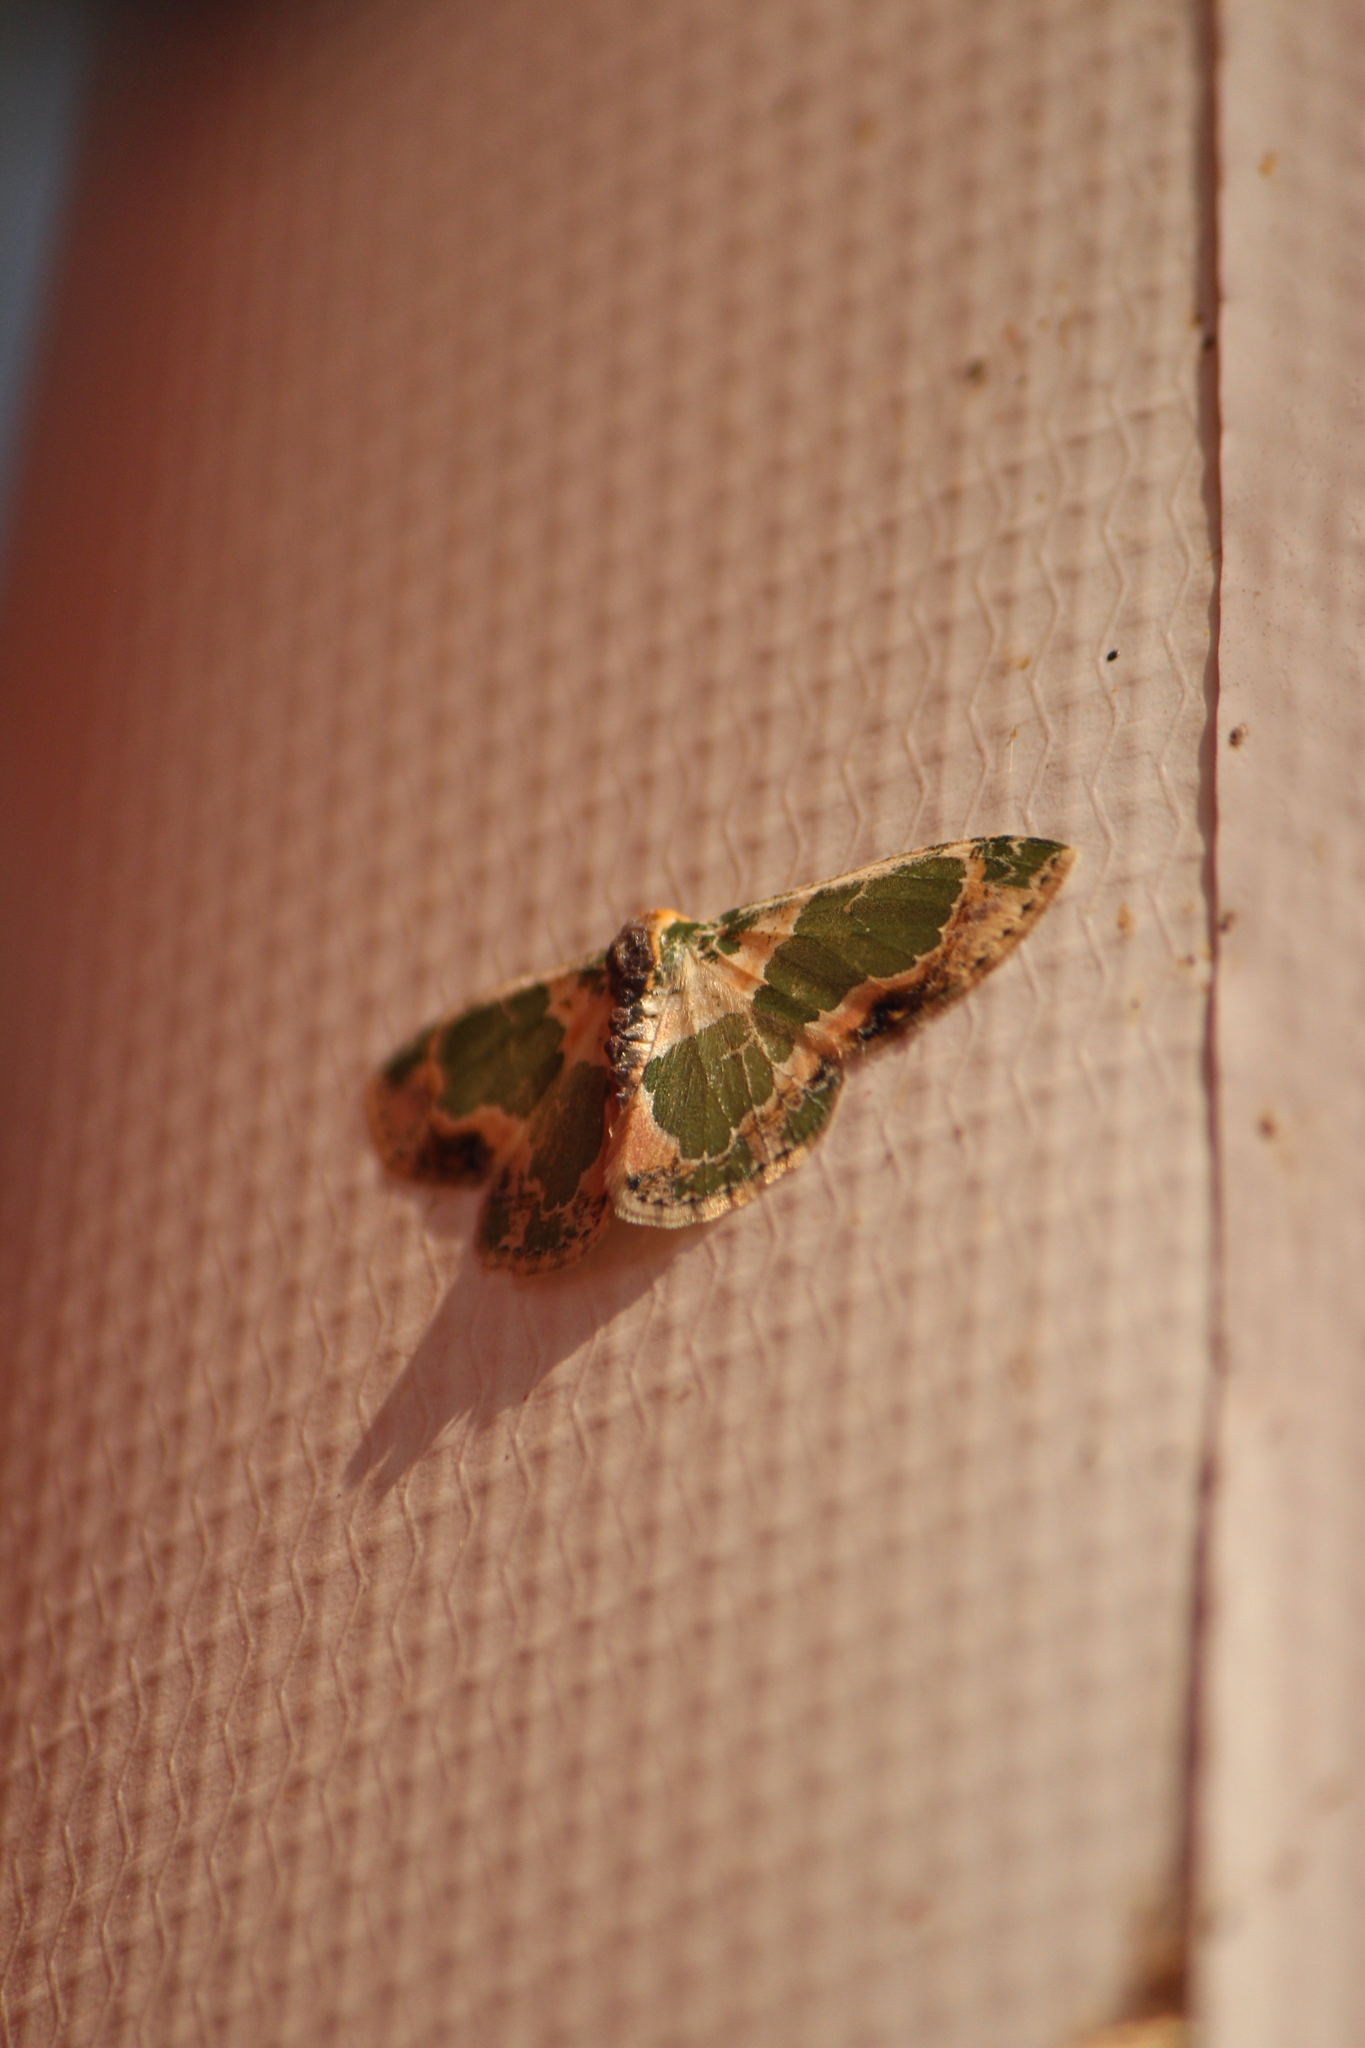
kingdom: Animalia
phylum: Arthropoda
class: Insecta
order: Lepidoptera
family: Geometridae
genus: Lophochorista
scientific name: Lophochorista calliope
